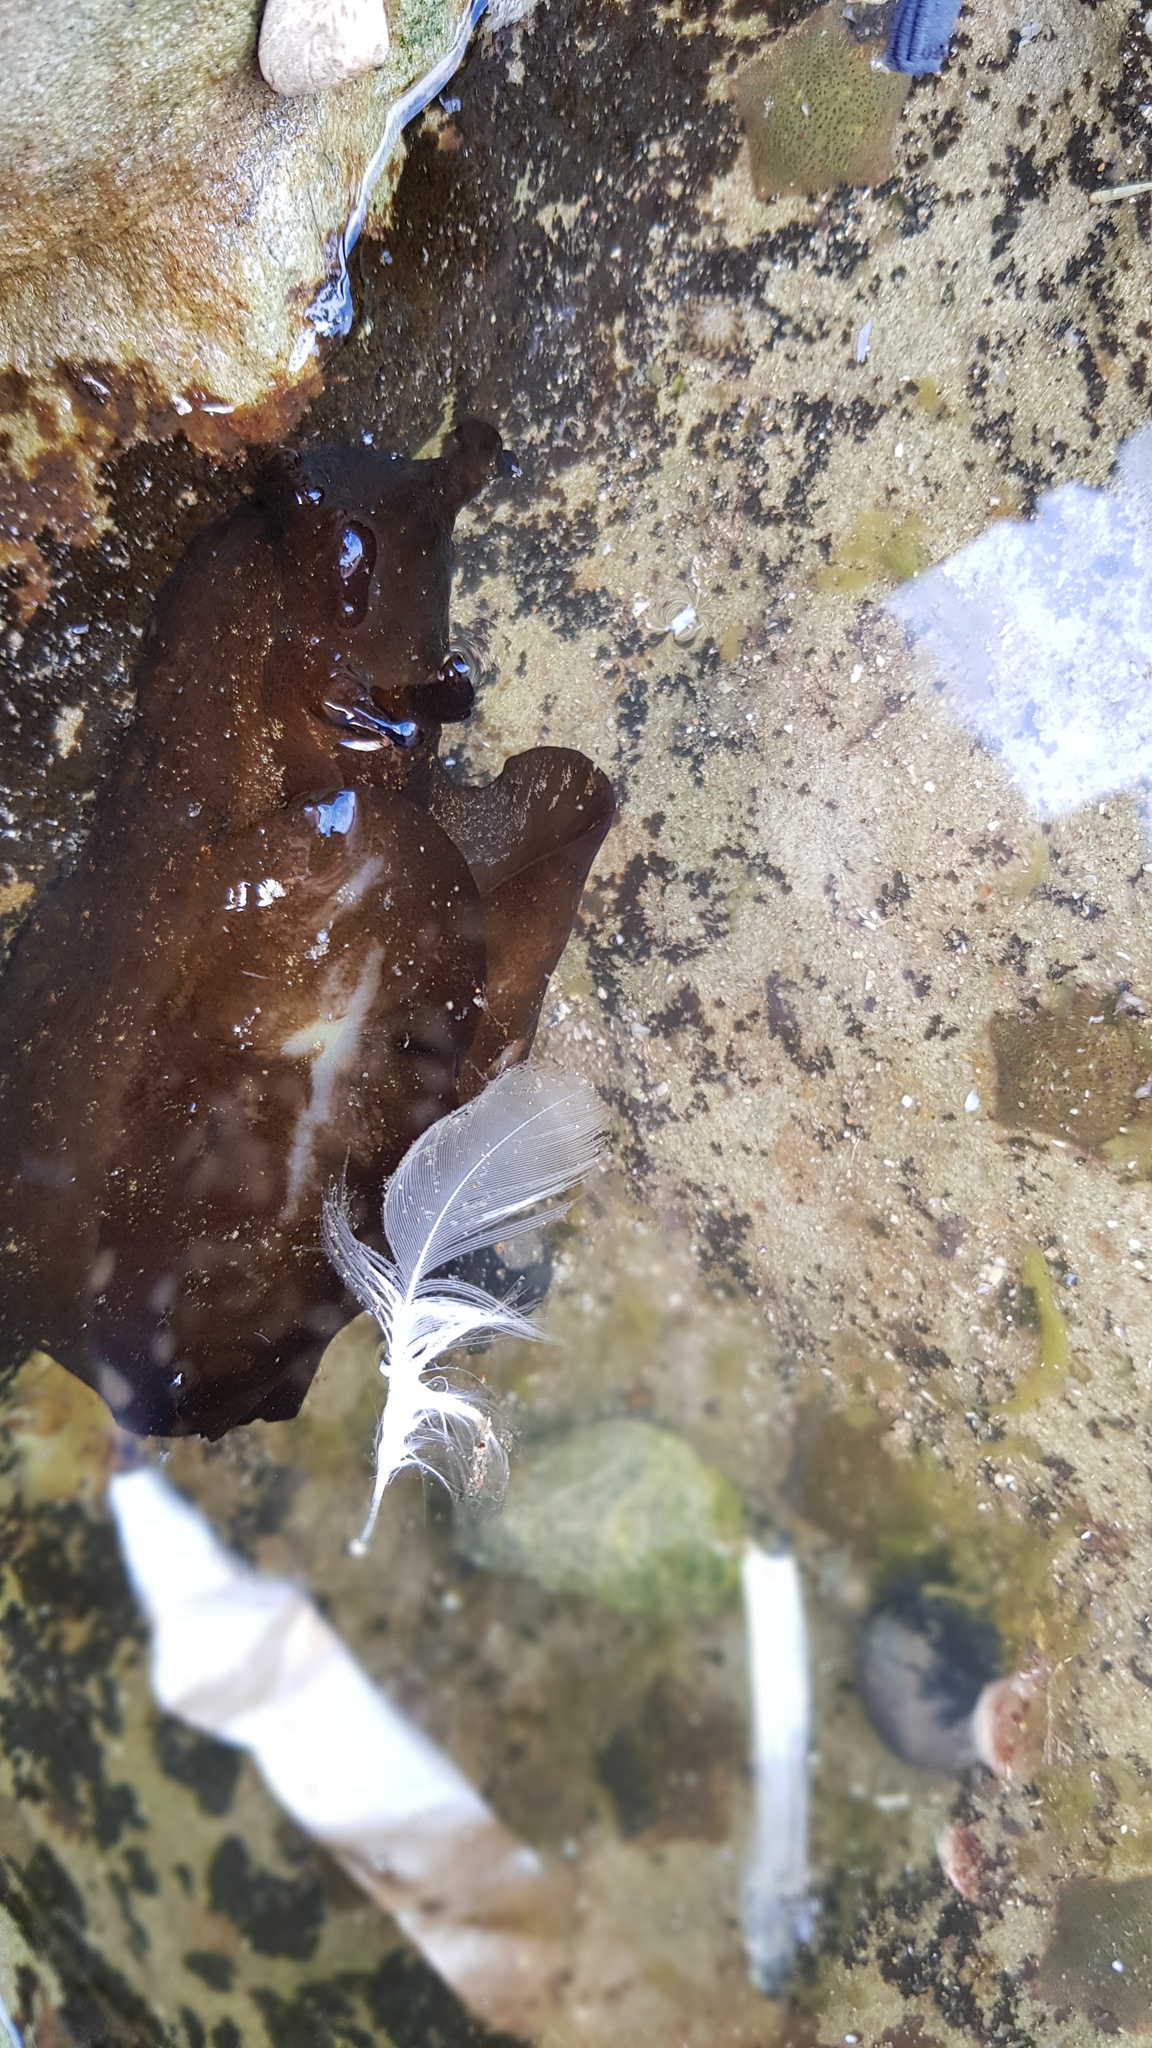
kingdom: Animalia
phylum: Mollusca
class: Gastropoda
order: Aplysiida
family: Aplysiidae
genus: Aplysia
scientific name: Aplysia juliana
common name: Walking sea hare
